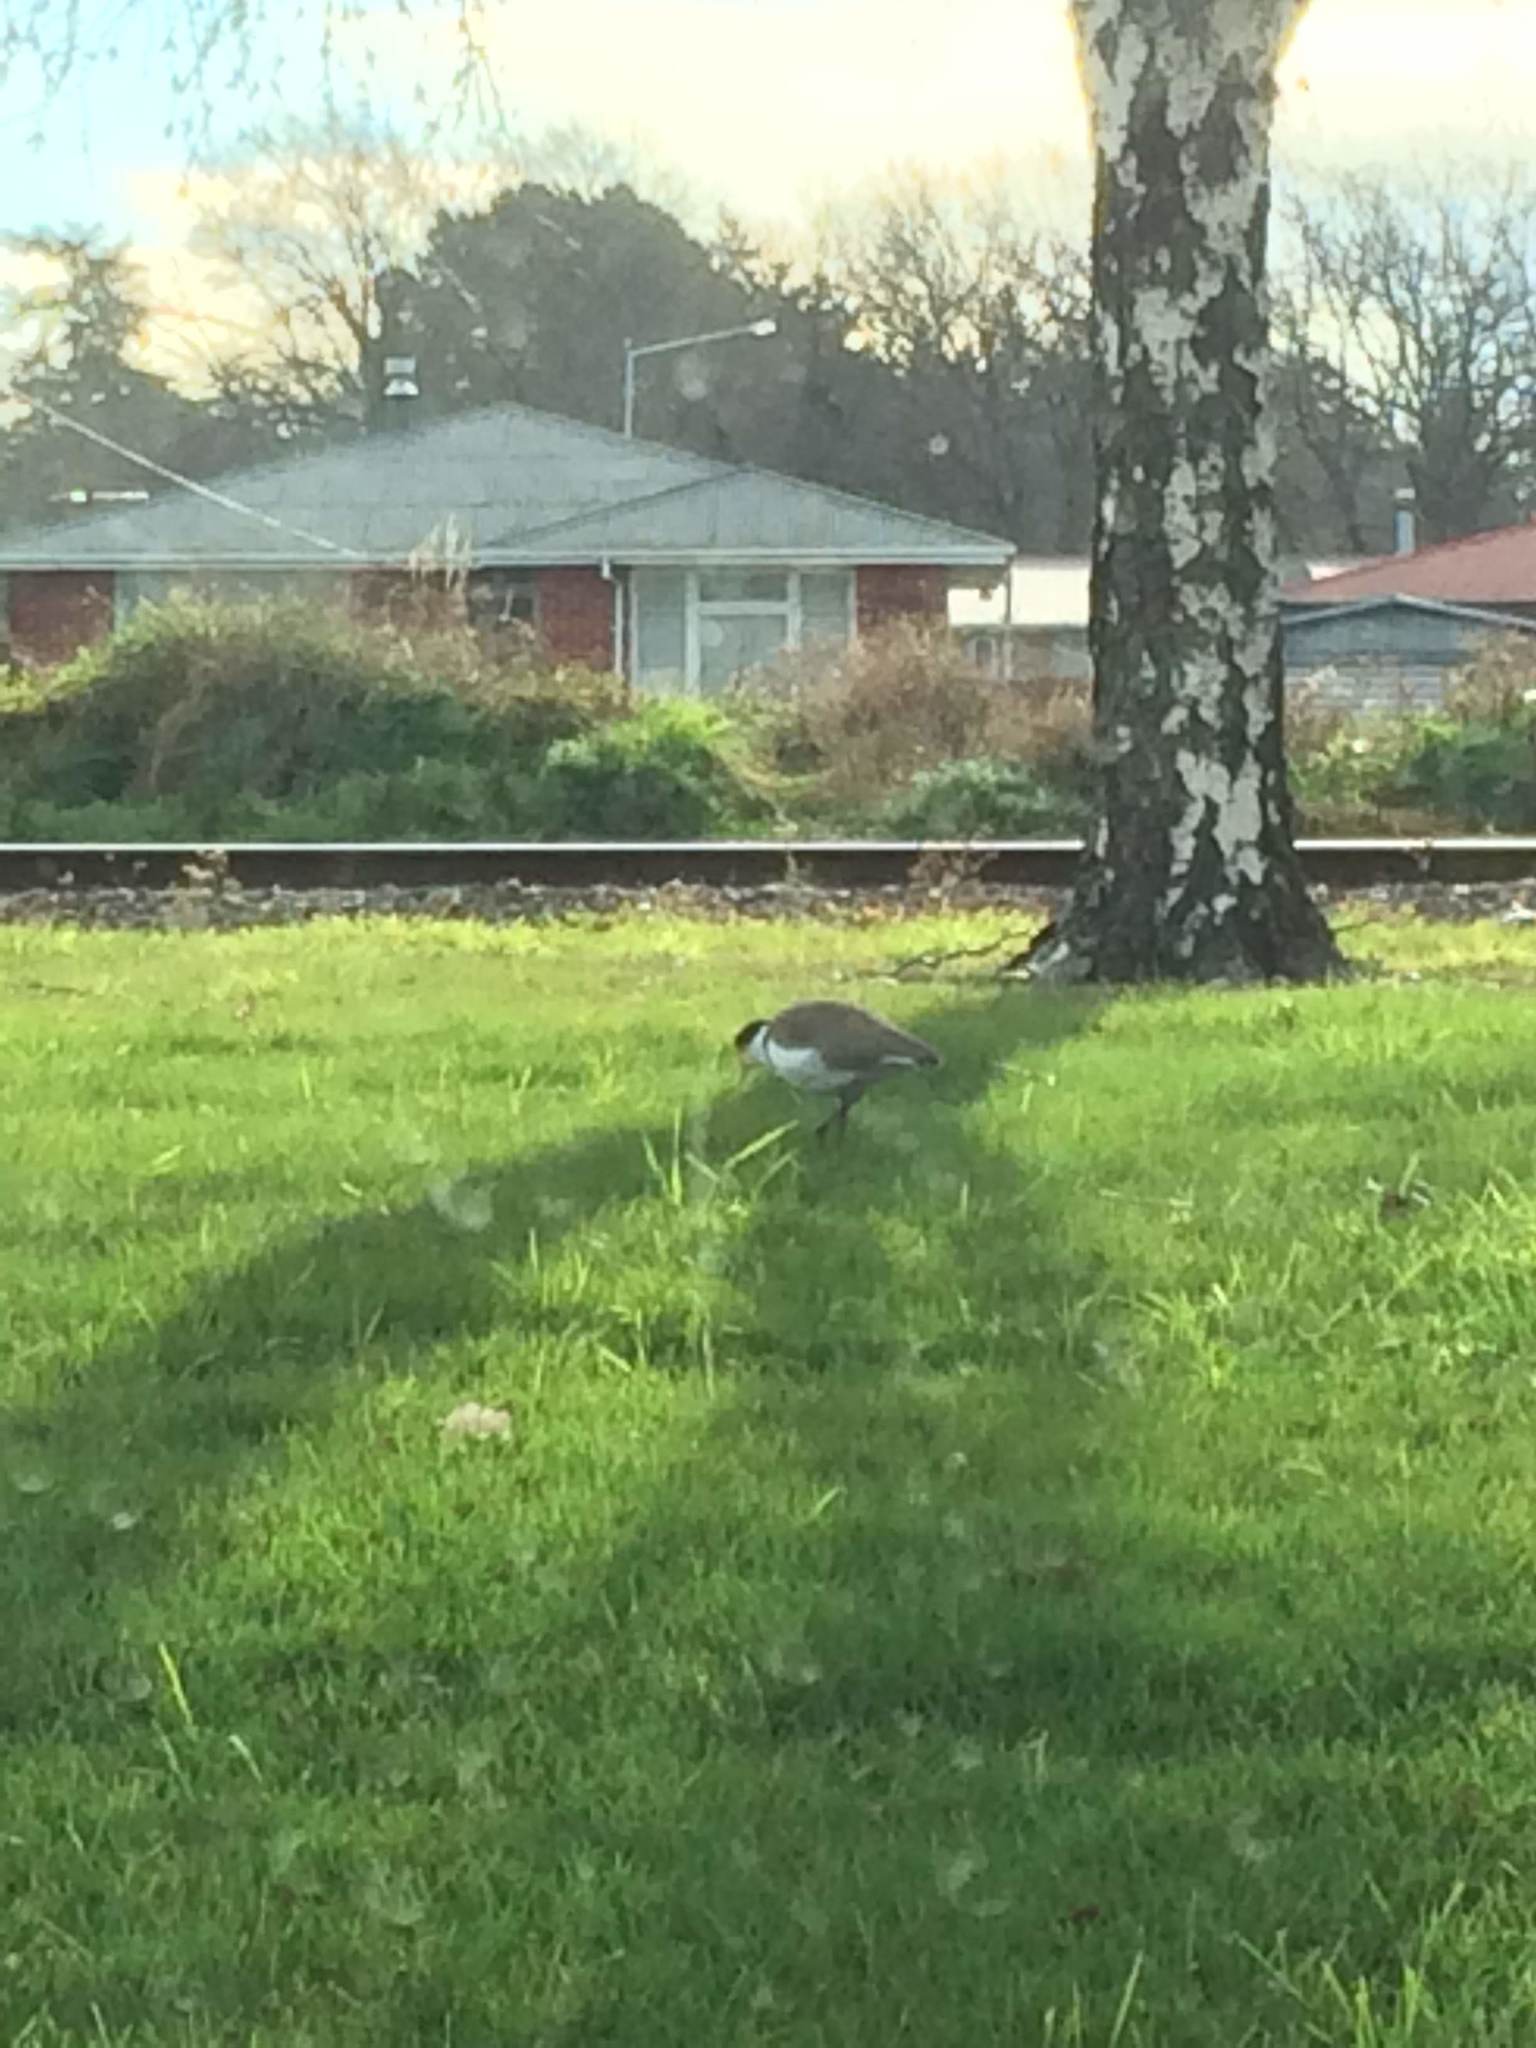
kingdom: Animalia
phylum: Chordata
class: Aves
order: Charadriiformes
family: Charadriidae
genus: Vanellus
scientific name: Vanellus miles
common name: Masked lapwing
